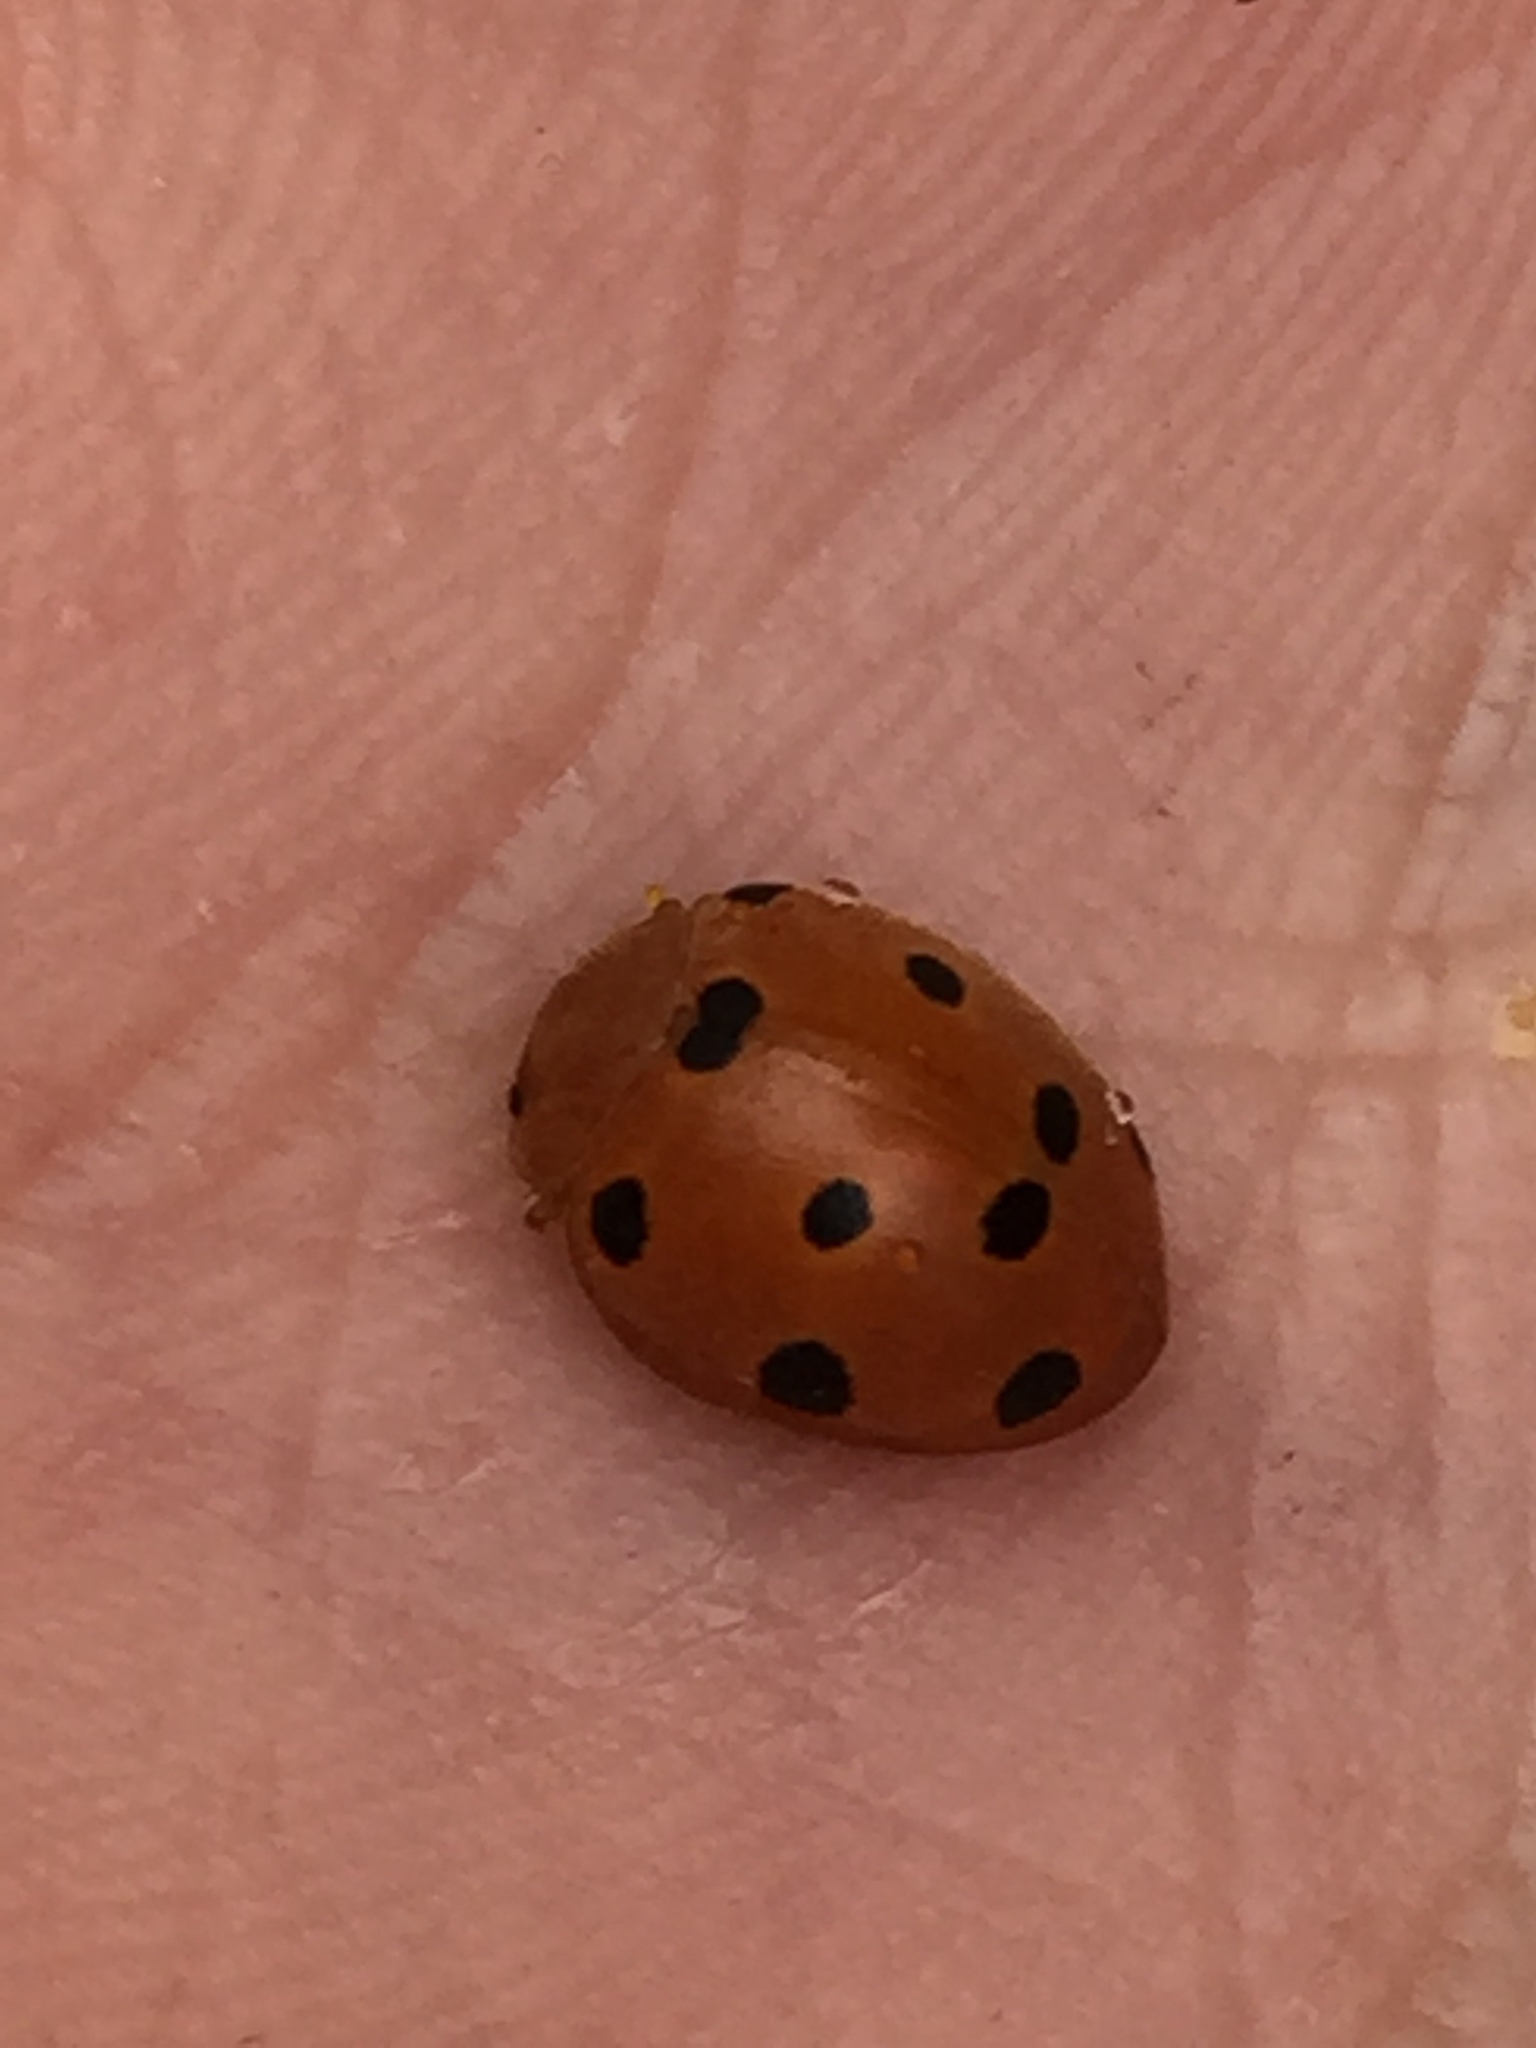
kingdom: Animalia
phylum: Arthropoda
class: Insecta
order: Coleoptera
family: Coccinellidae
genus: Henosepilachna
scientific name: Henosepilachna argus
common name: Bryony ladybird
